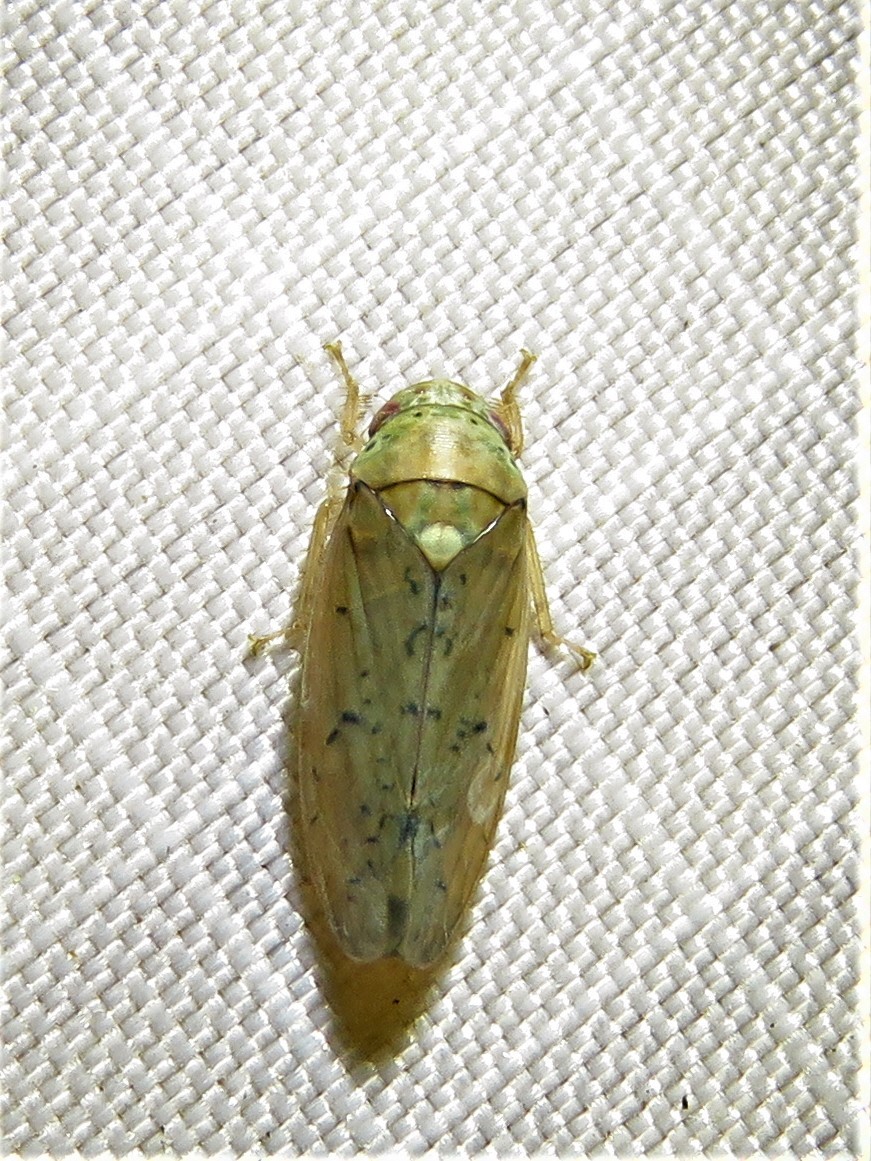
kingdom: Animalia
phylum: Arthropoda
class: Insecta
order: Hemiptera
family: Cicadellidae
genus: Ponana
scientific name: Ponana quadralaba
